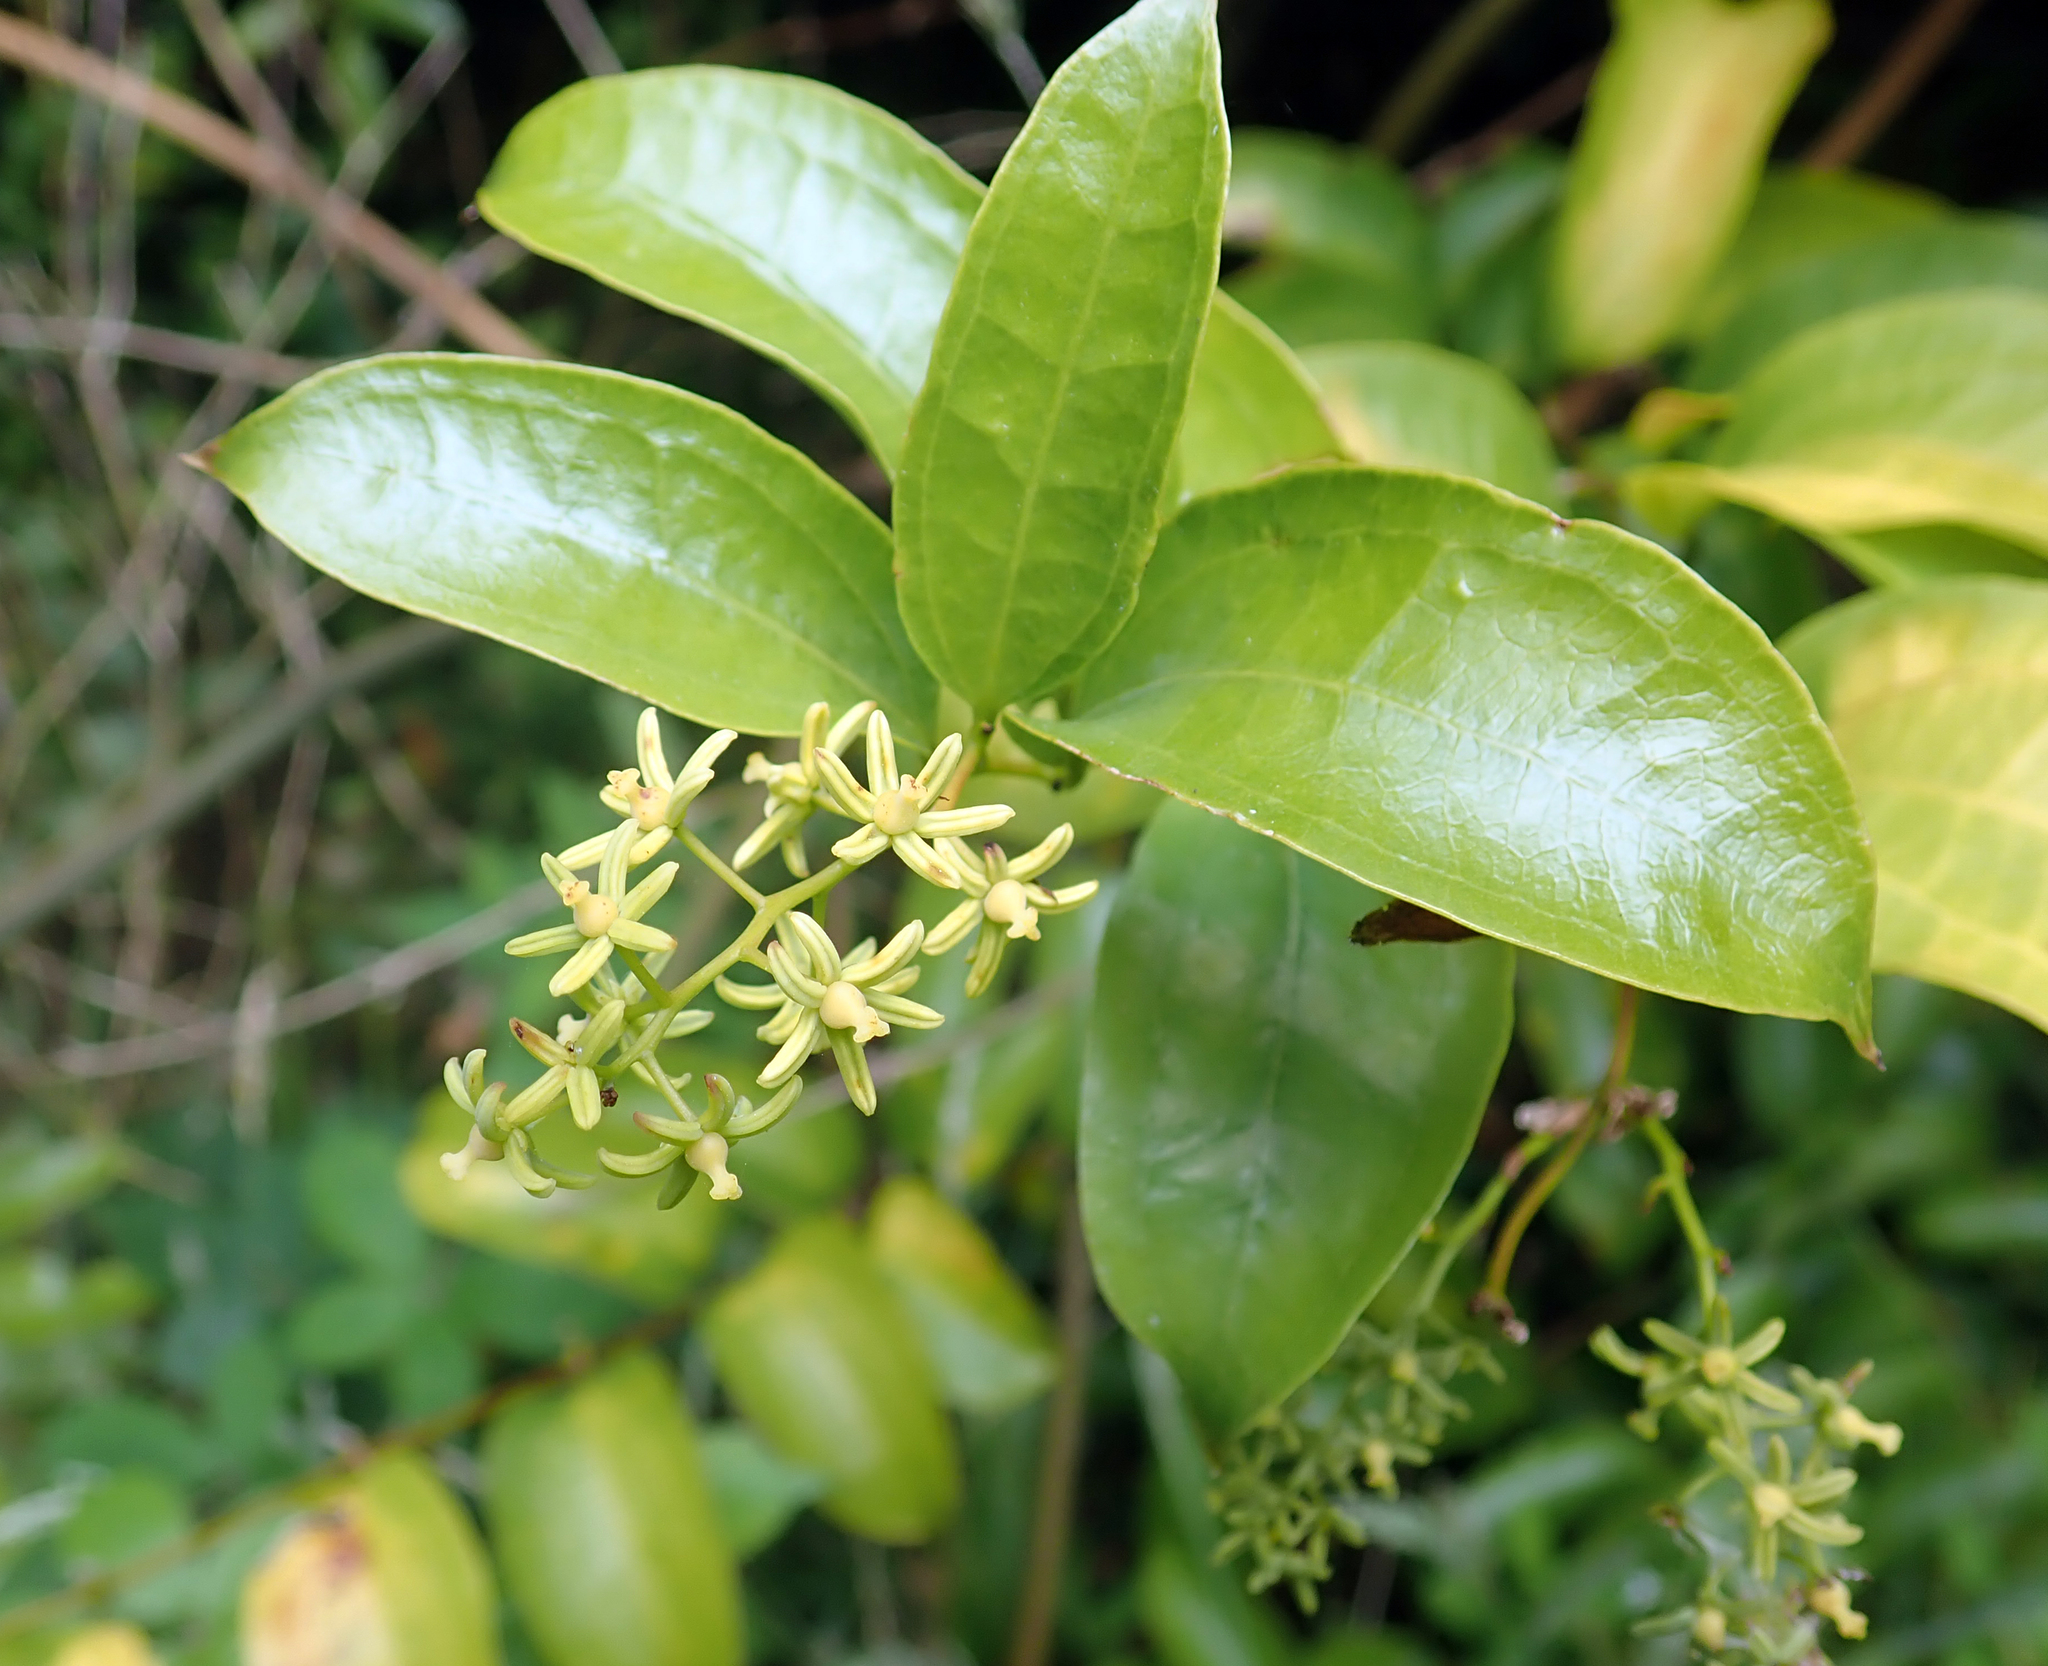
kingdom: Plantae
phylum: Tracheophyta
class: Liliopsida
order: Liliales
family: Ripogonaceae
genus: Ripogonum
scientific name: Ripogonum scandens
